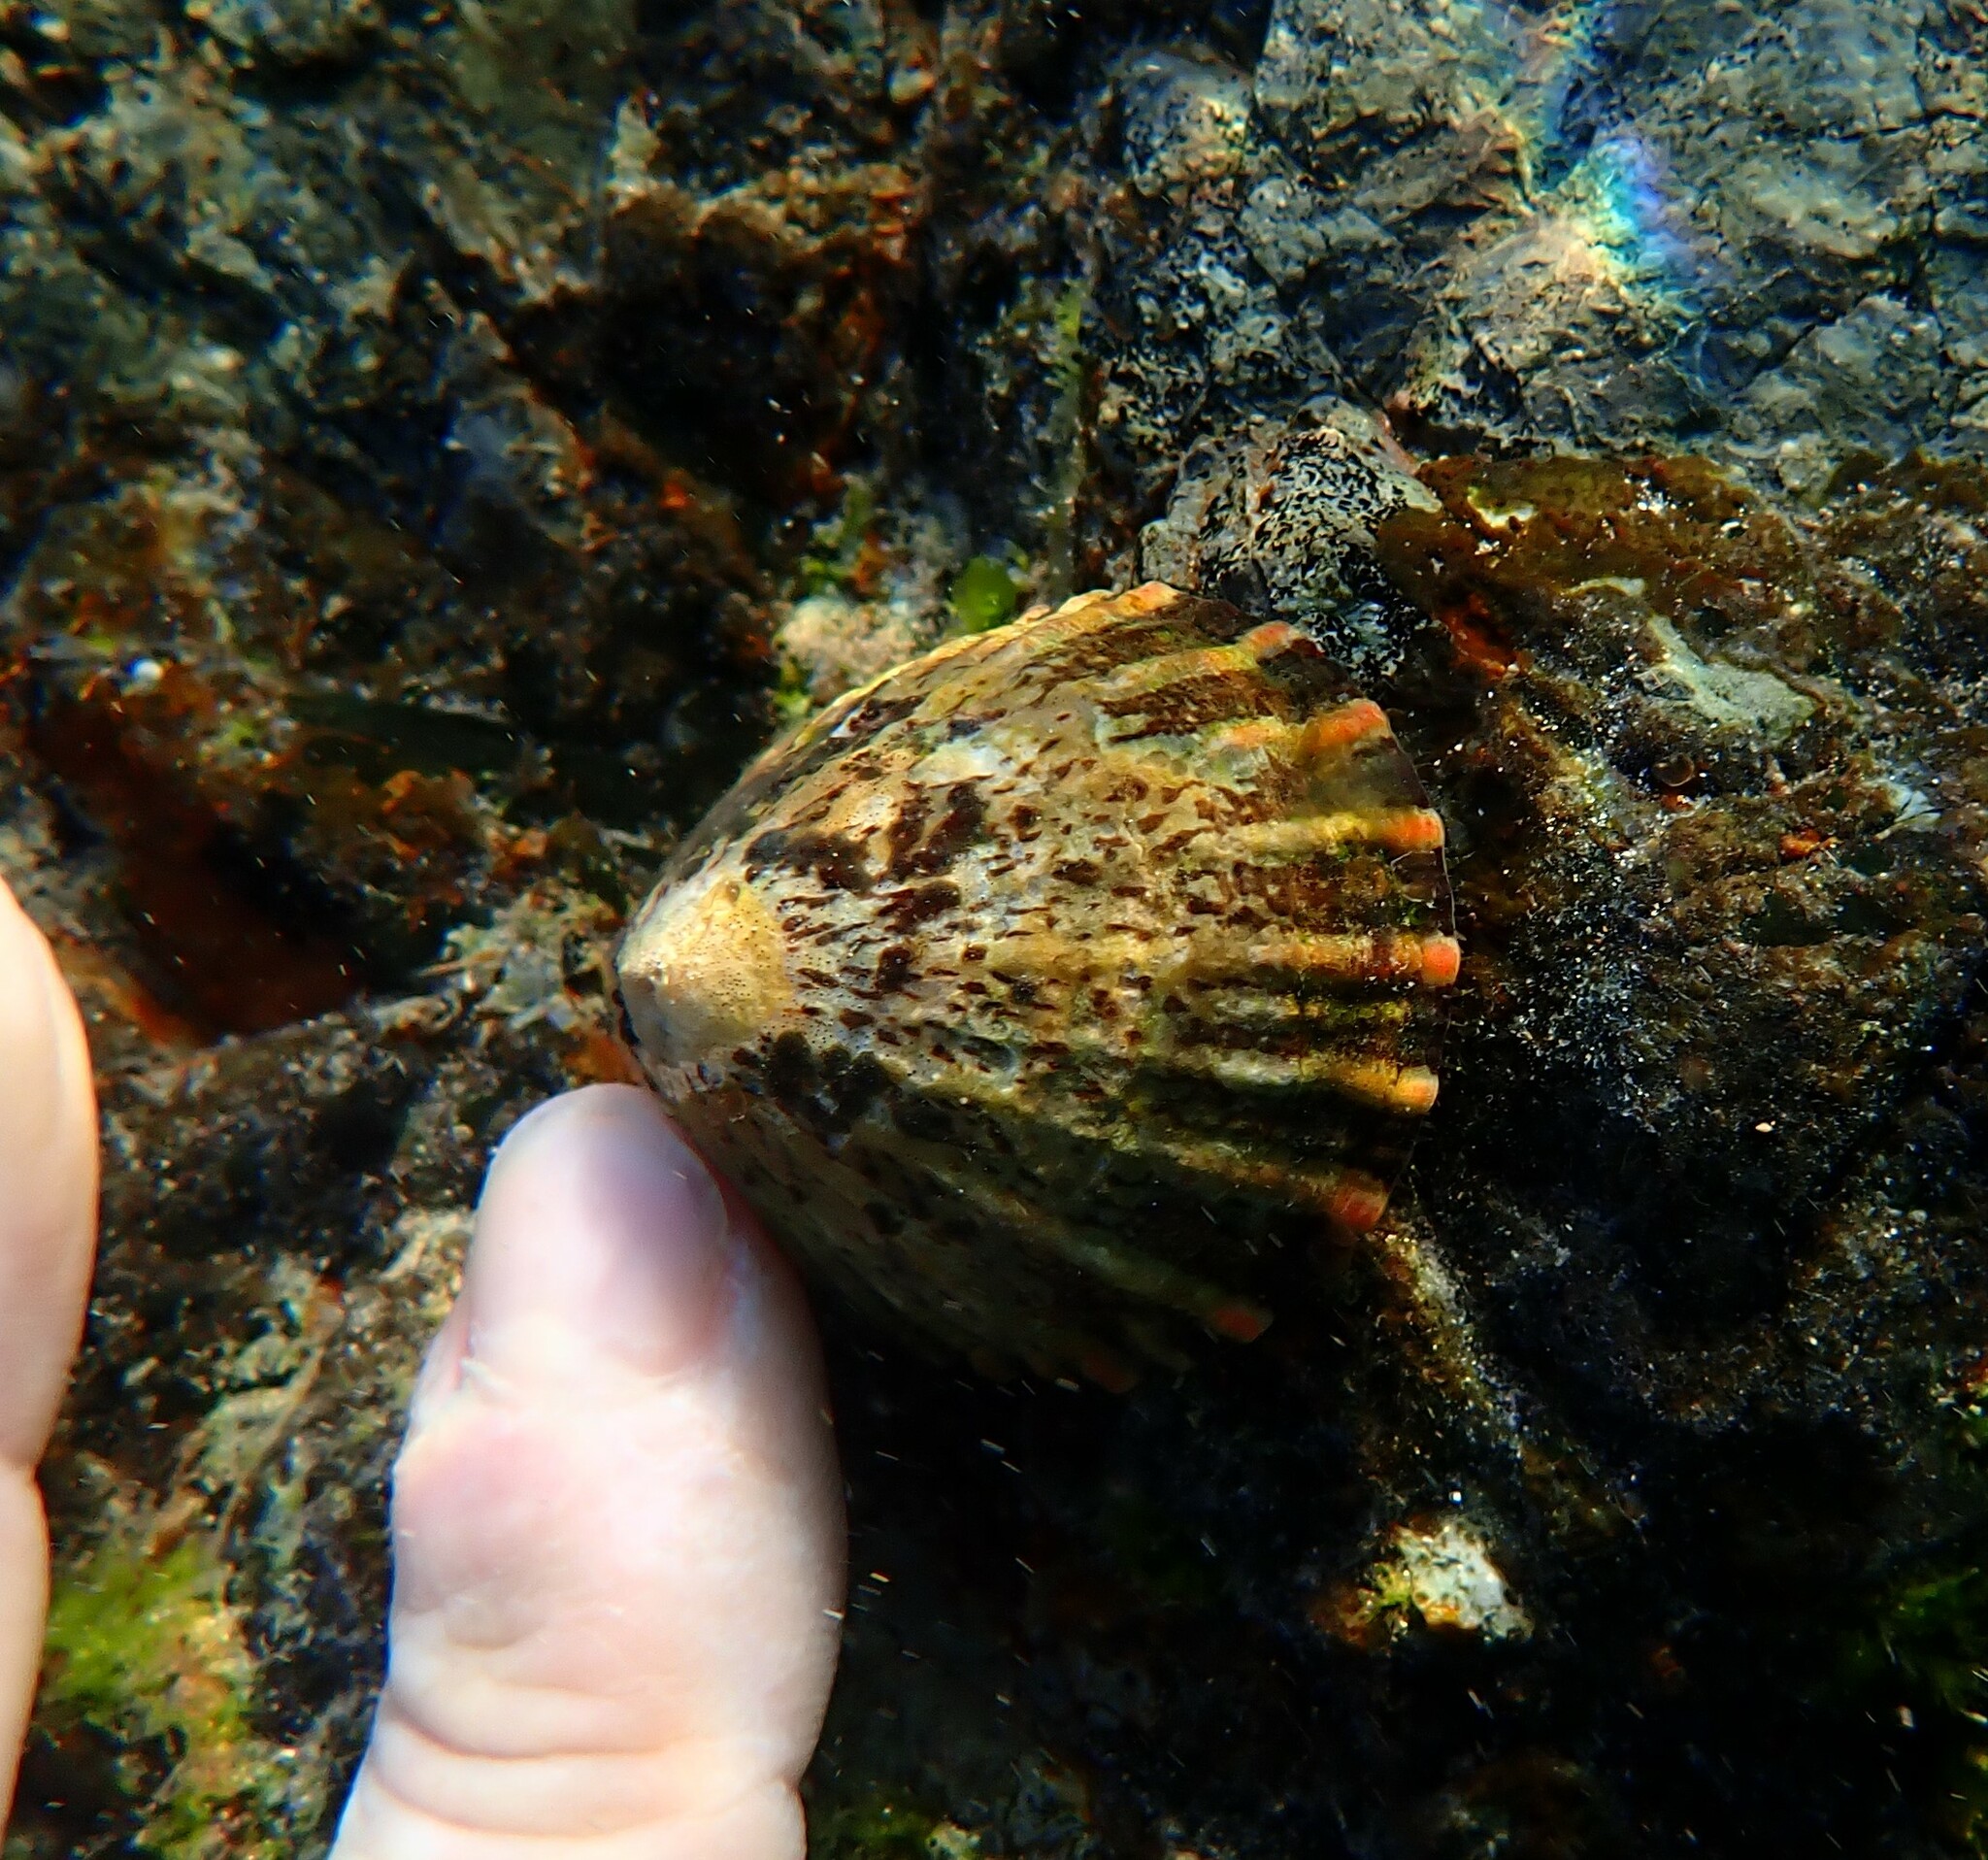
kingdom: Animalia
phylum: Mollusca
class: Gastropoda
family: Nacellidae
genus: Cellana
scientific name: Cellana tramoserica
